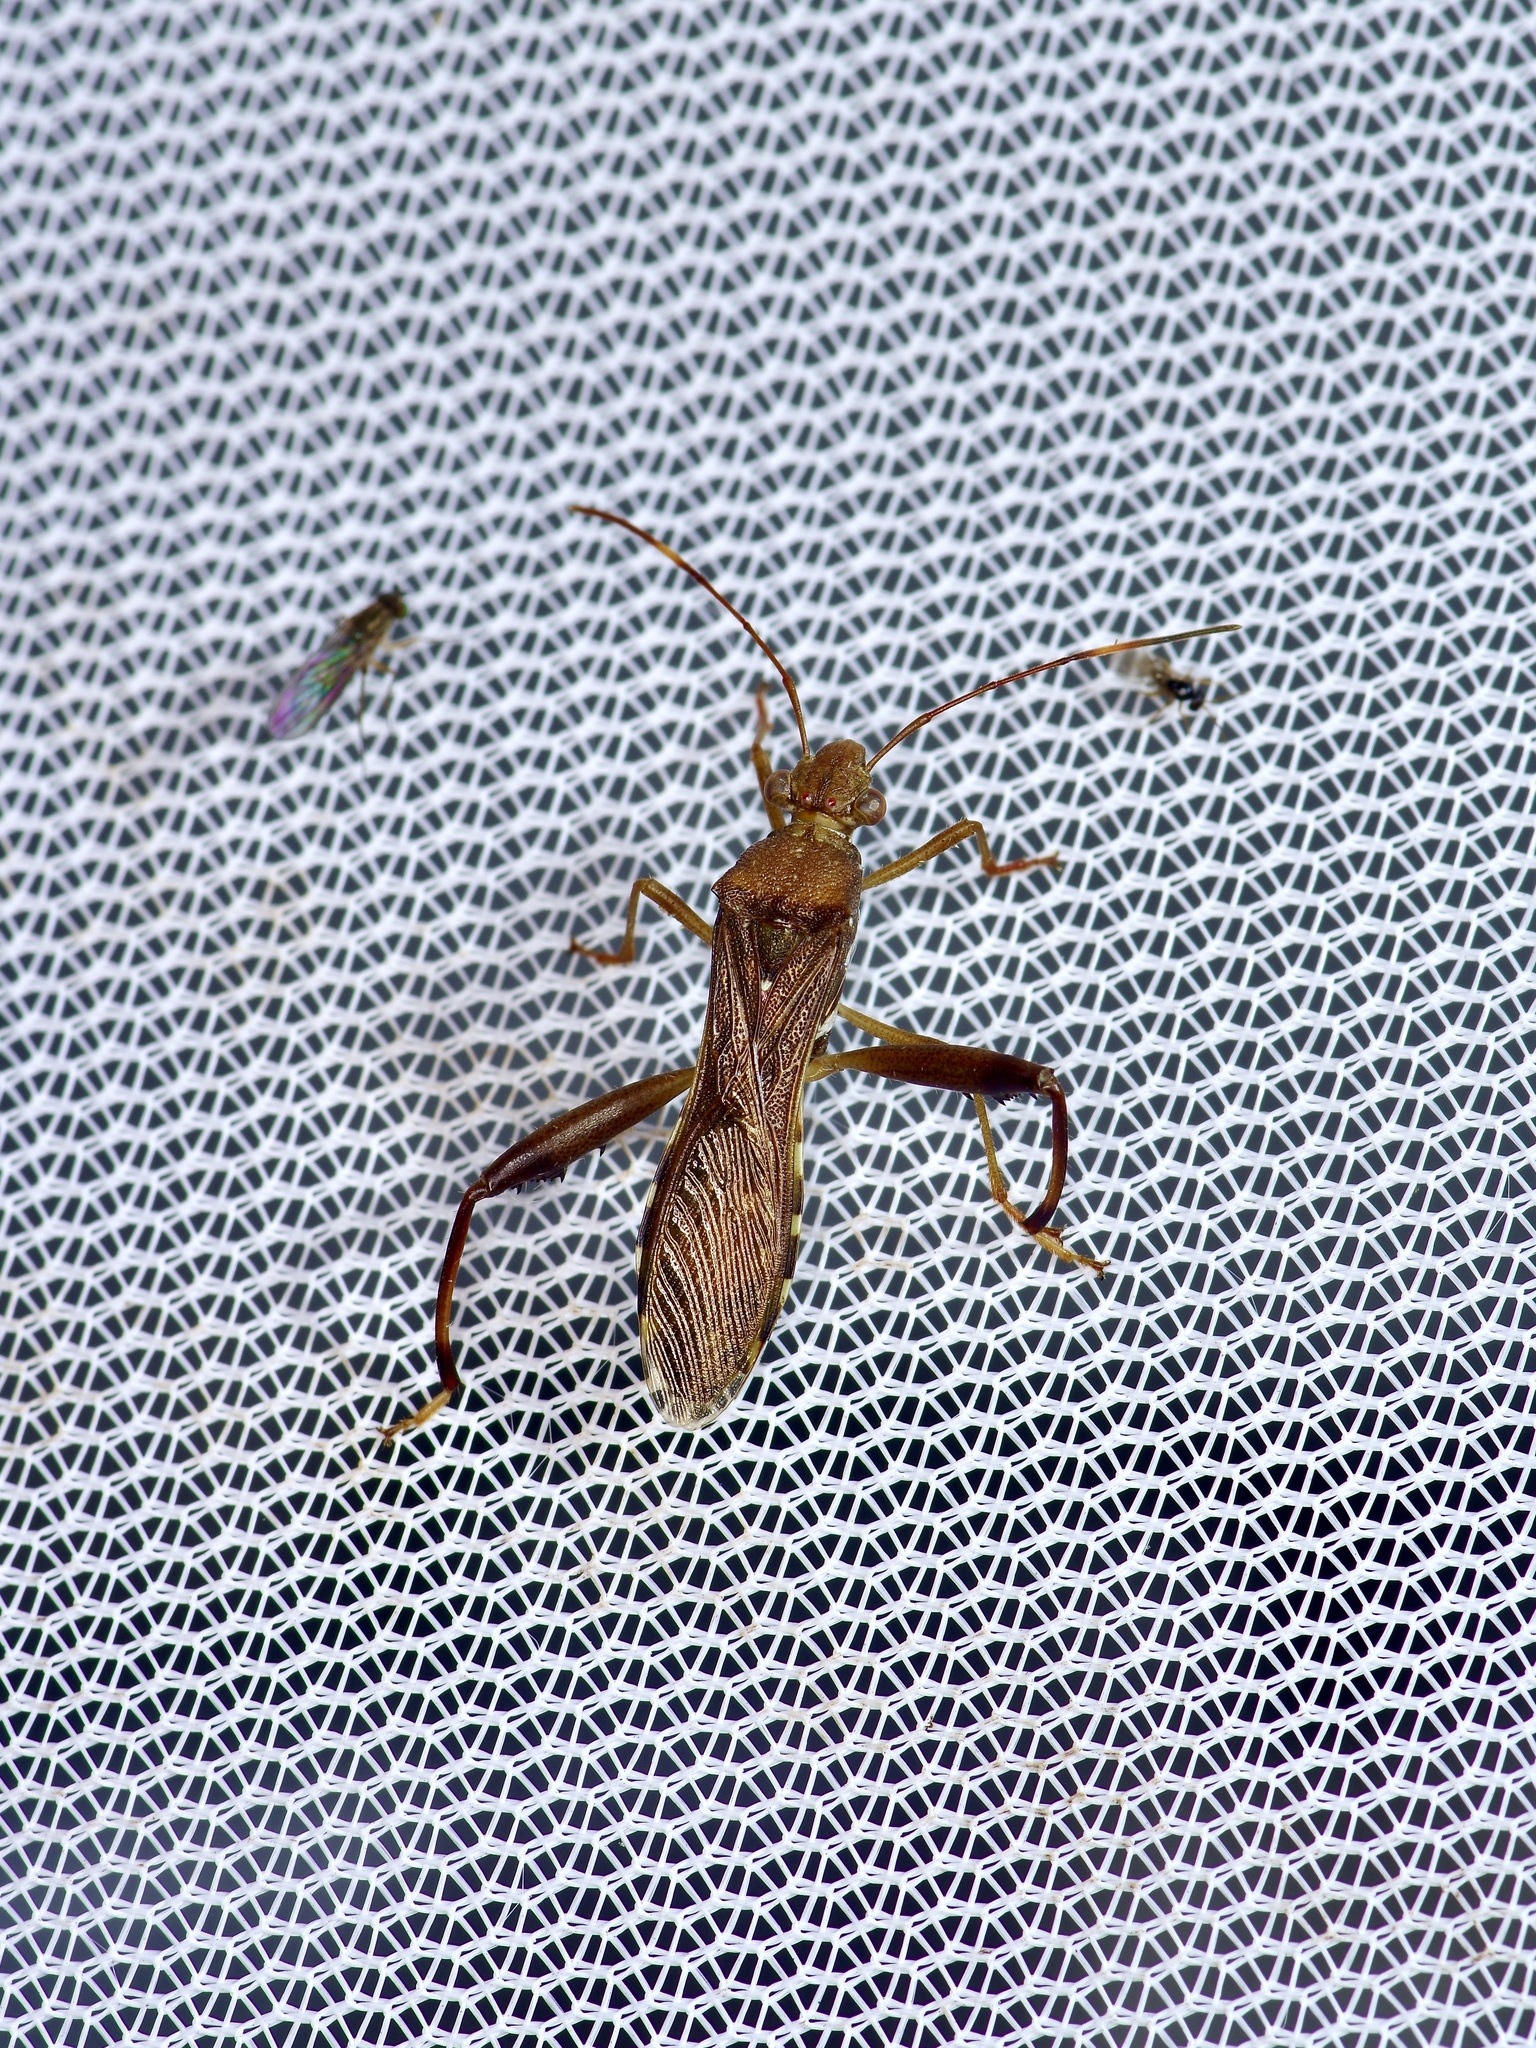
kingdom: Animalia
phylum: Arthropoda
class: Insecta
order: Hemiptera
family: Alydidae
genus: Hyalymenus
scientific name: Hyalymenus tarsatus
